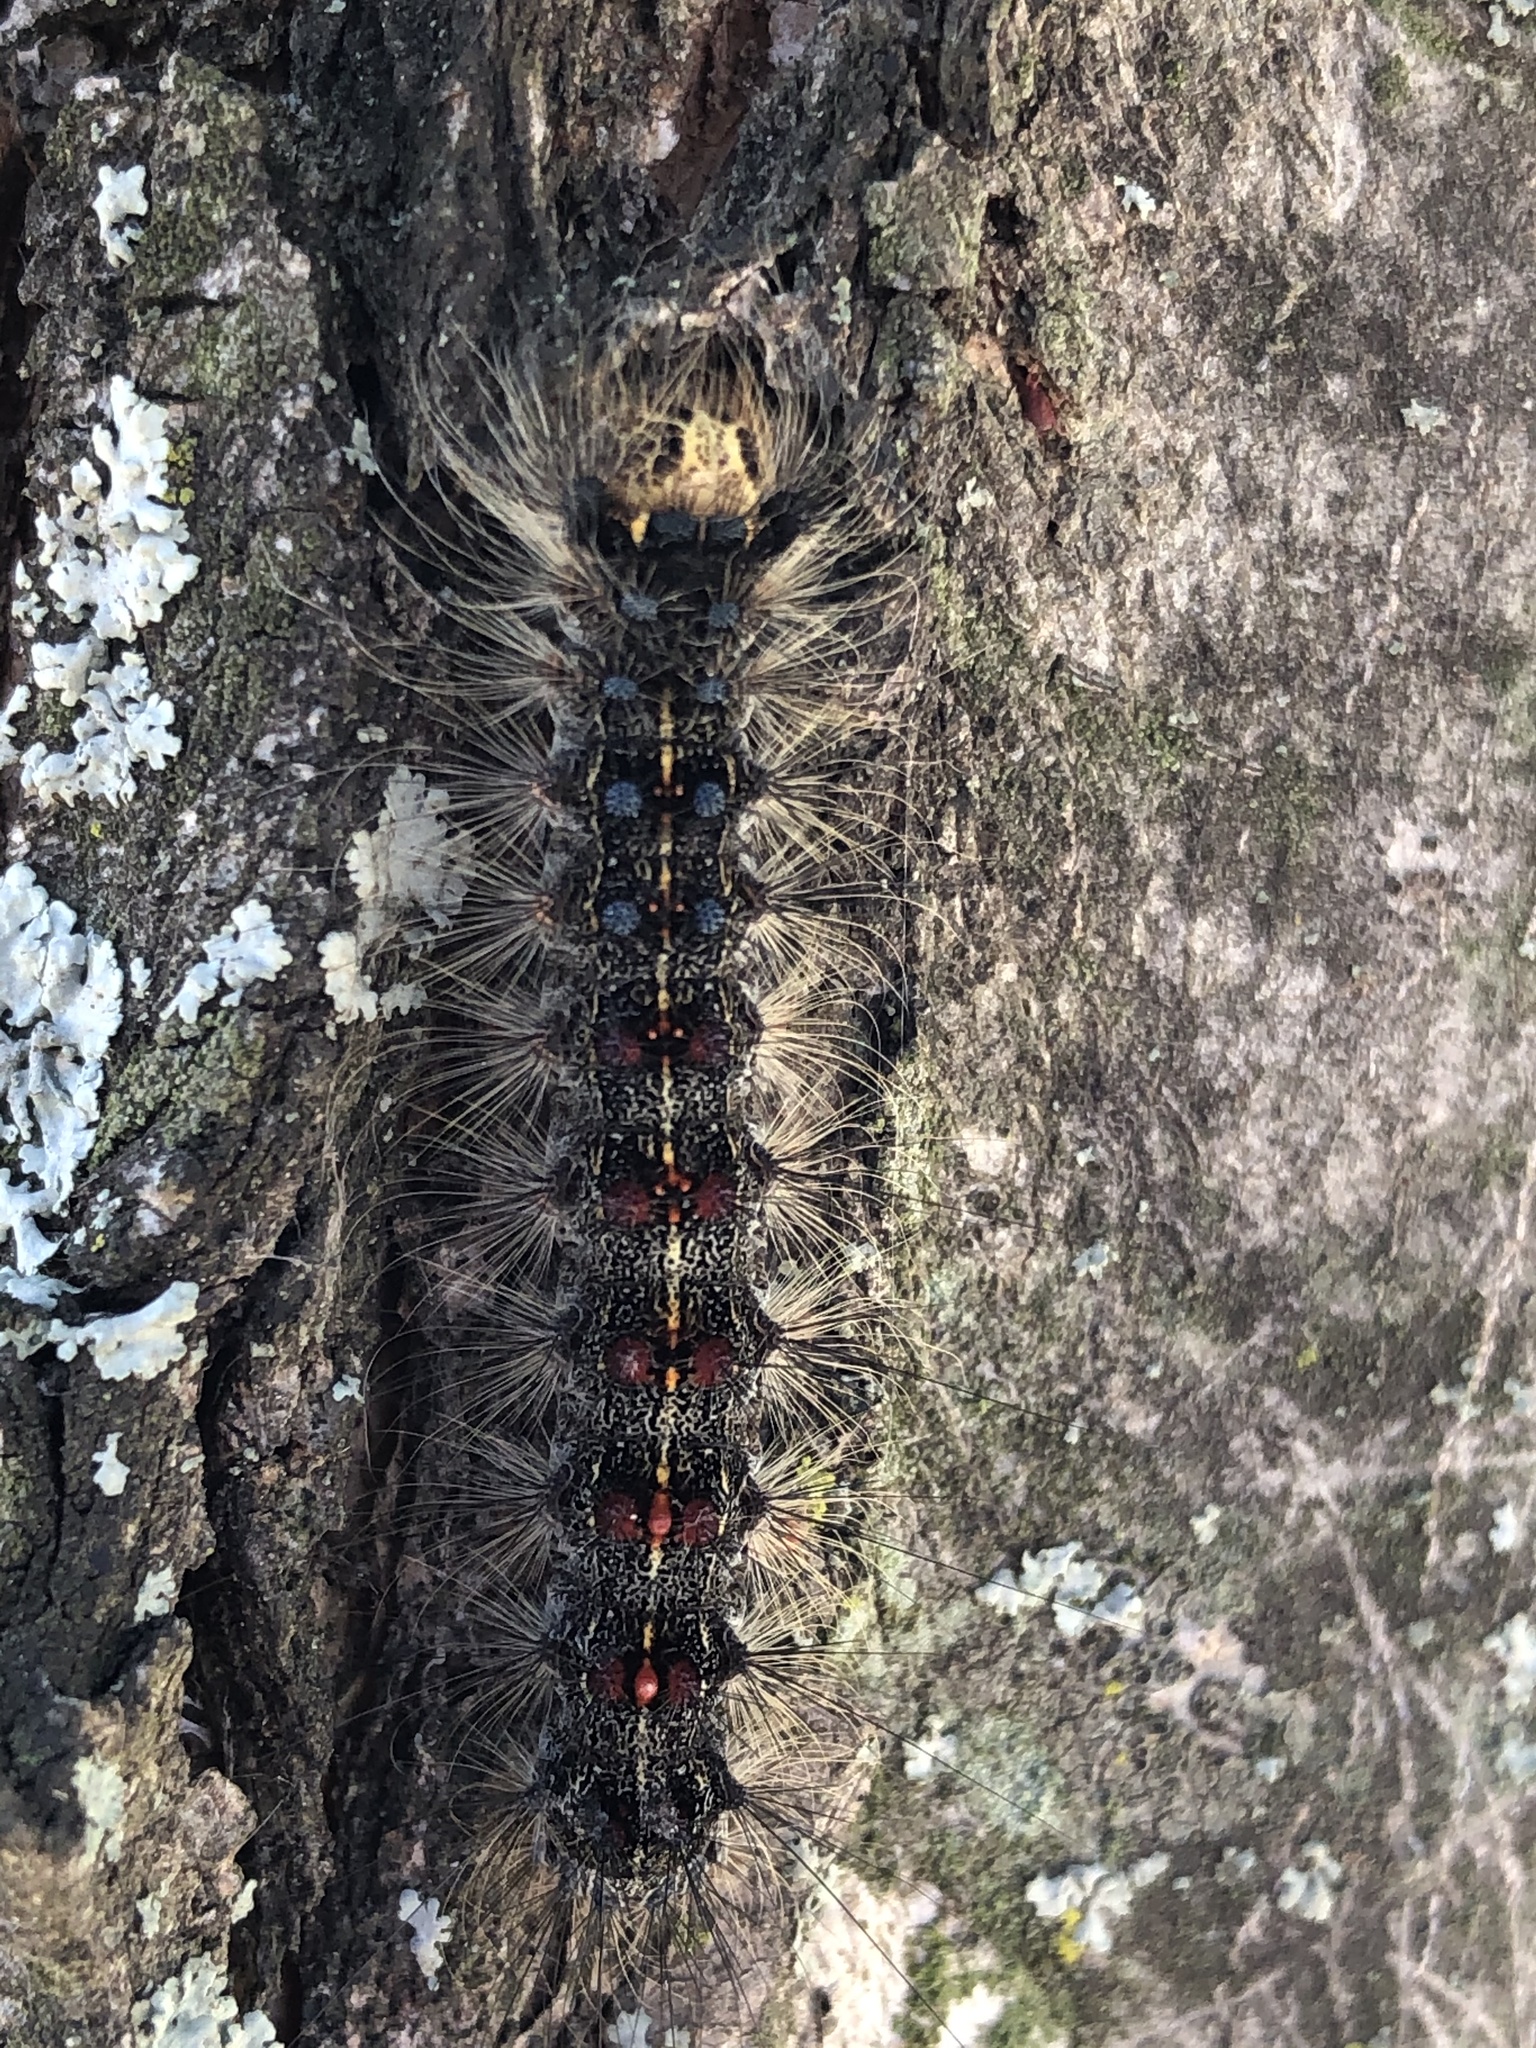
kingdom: Animalia
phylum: Arthropoda
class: Insecta
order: Lepidoptera
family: Erebidae
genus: Lymantria
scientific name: Lymantria dispar
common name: Gypsy moth
